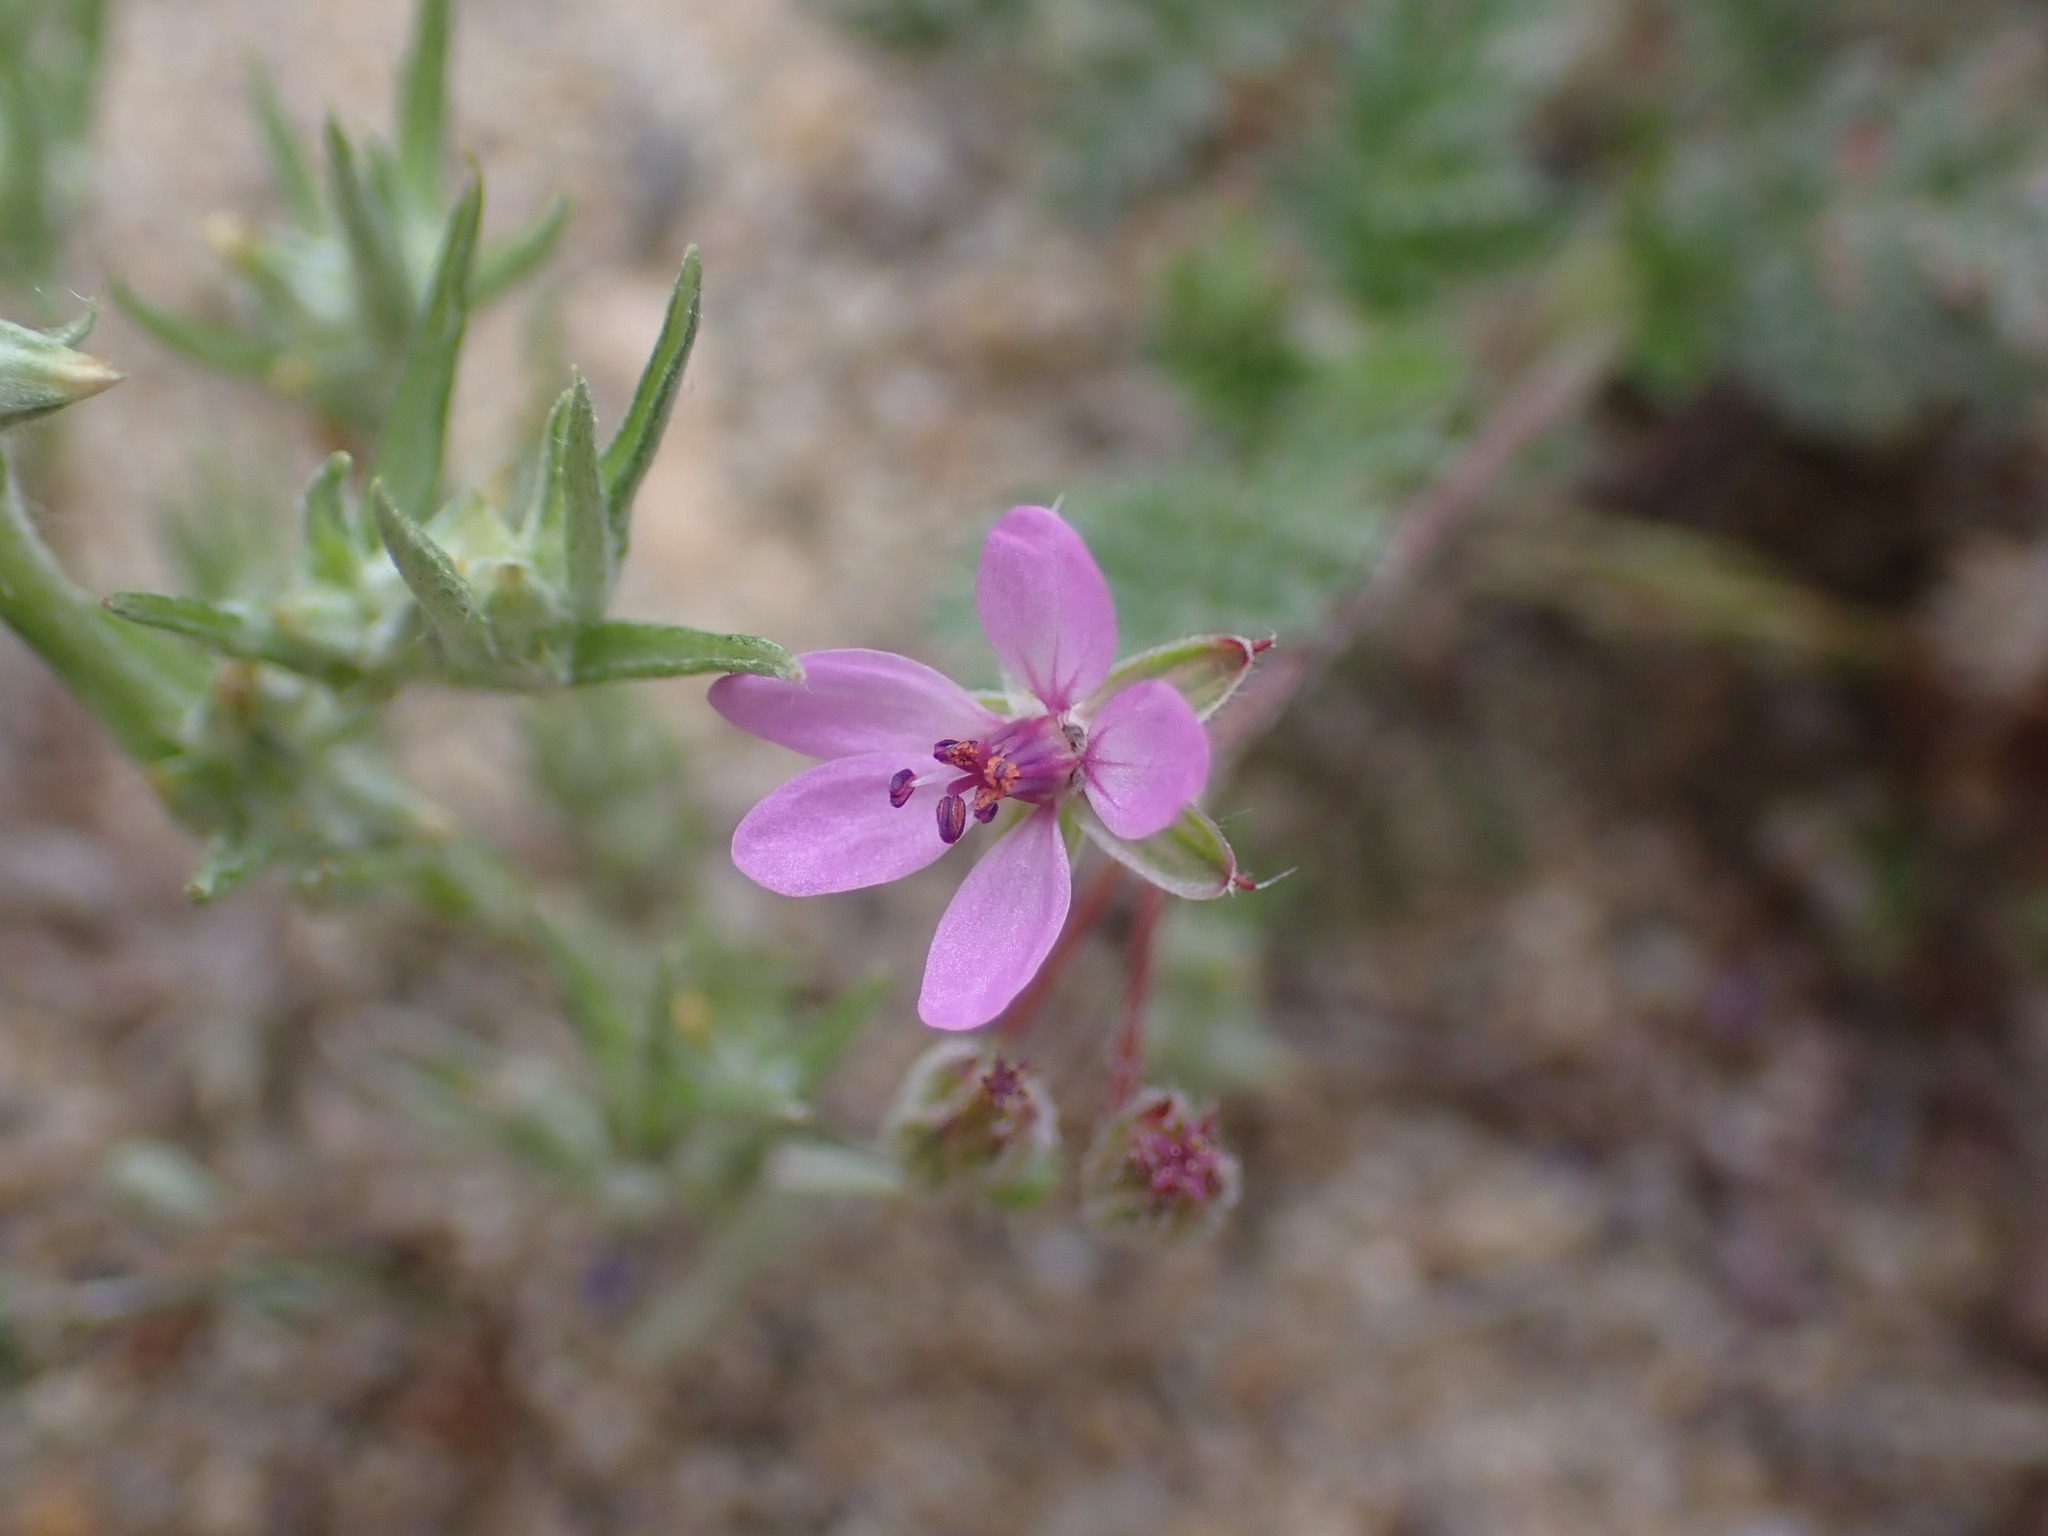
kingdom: Plantae
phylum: Tracheophyta
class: Magnoliopsida
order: Geraniales
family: Geraniaceae
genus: Erodium
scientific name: Erodium cicutarium
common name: Common stork's-bill
